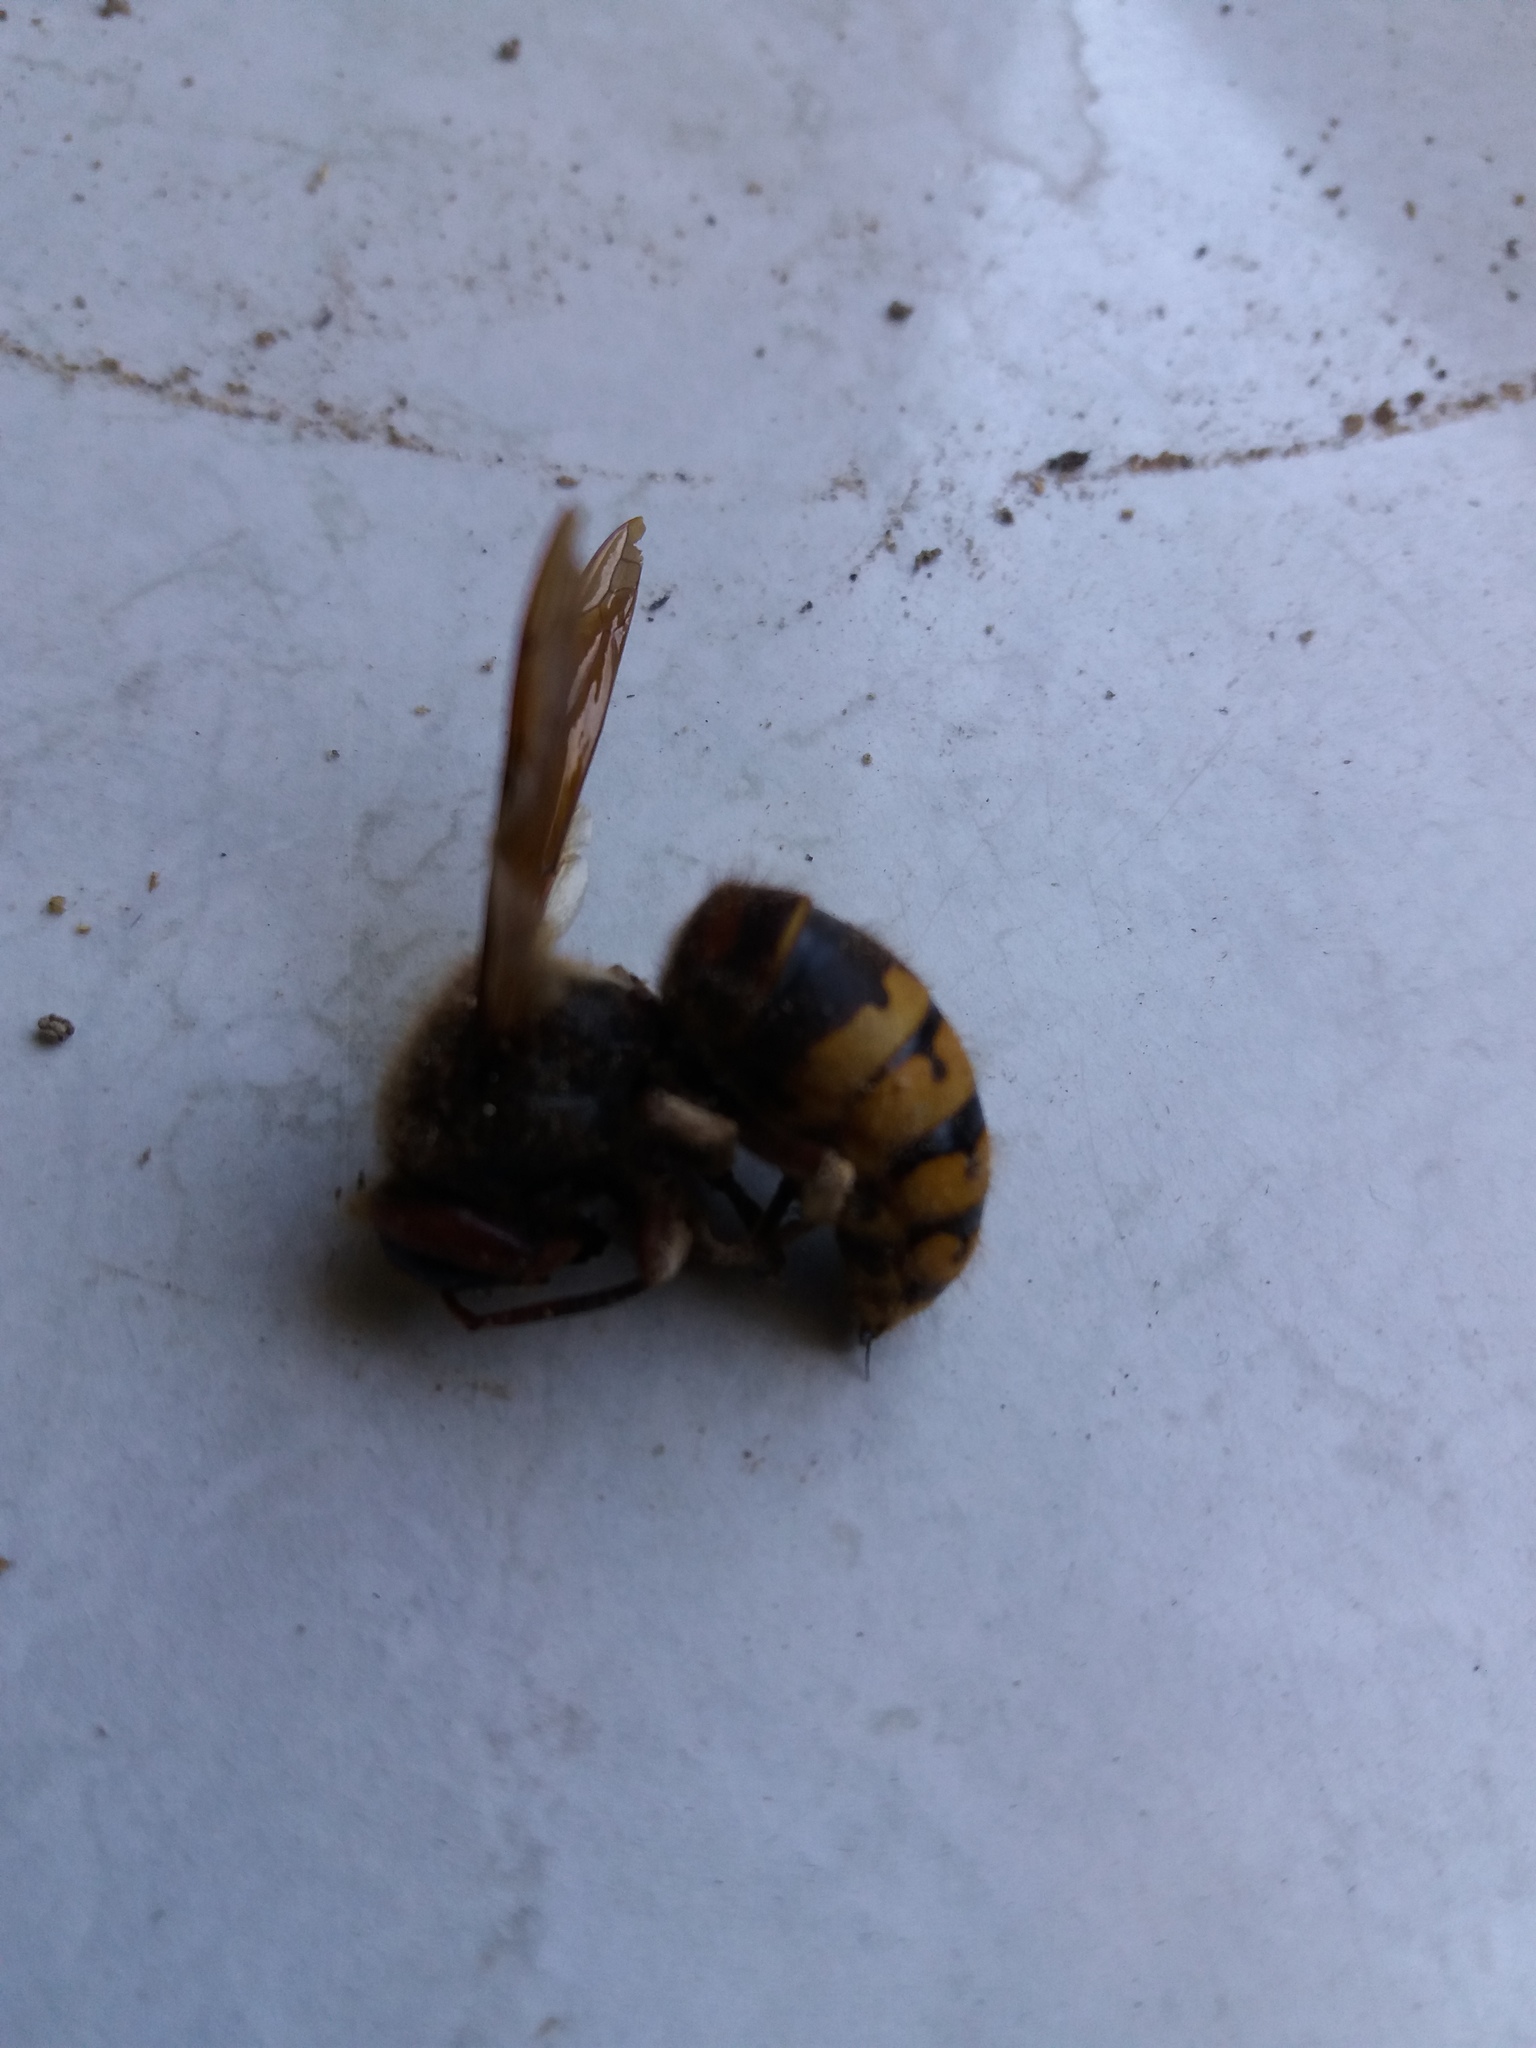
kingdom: Animalia
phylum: Arthropoda
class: Insecta
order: Hymenoptera
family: Vespidae
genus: Vespa
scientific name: Vespa crabro
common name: Hornet
